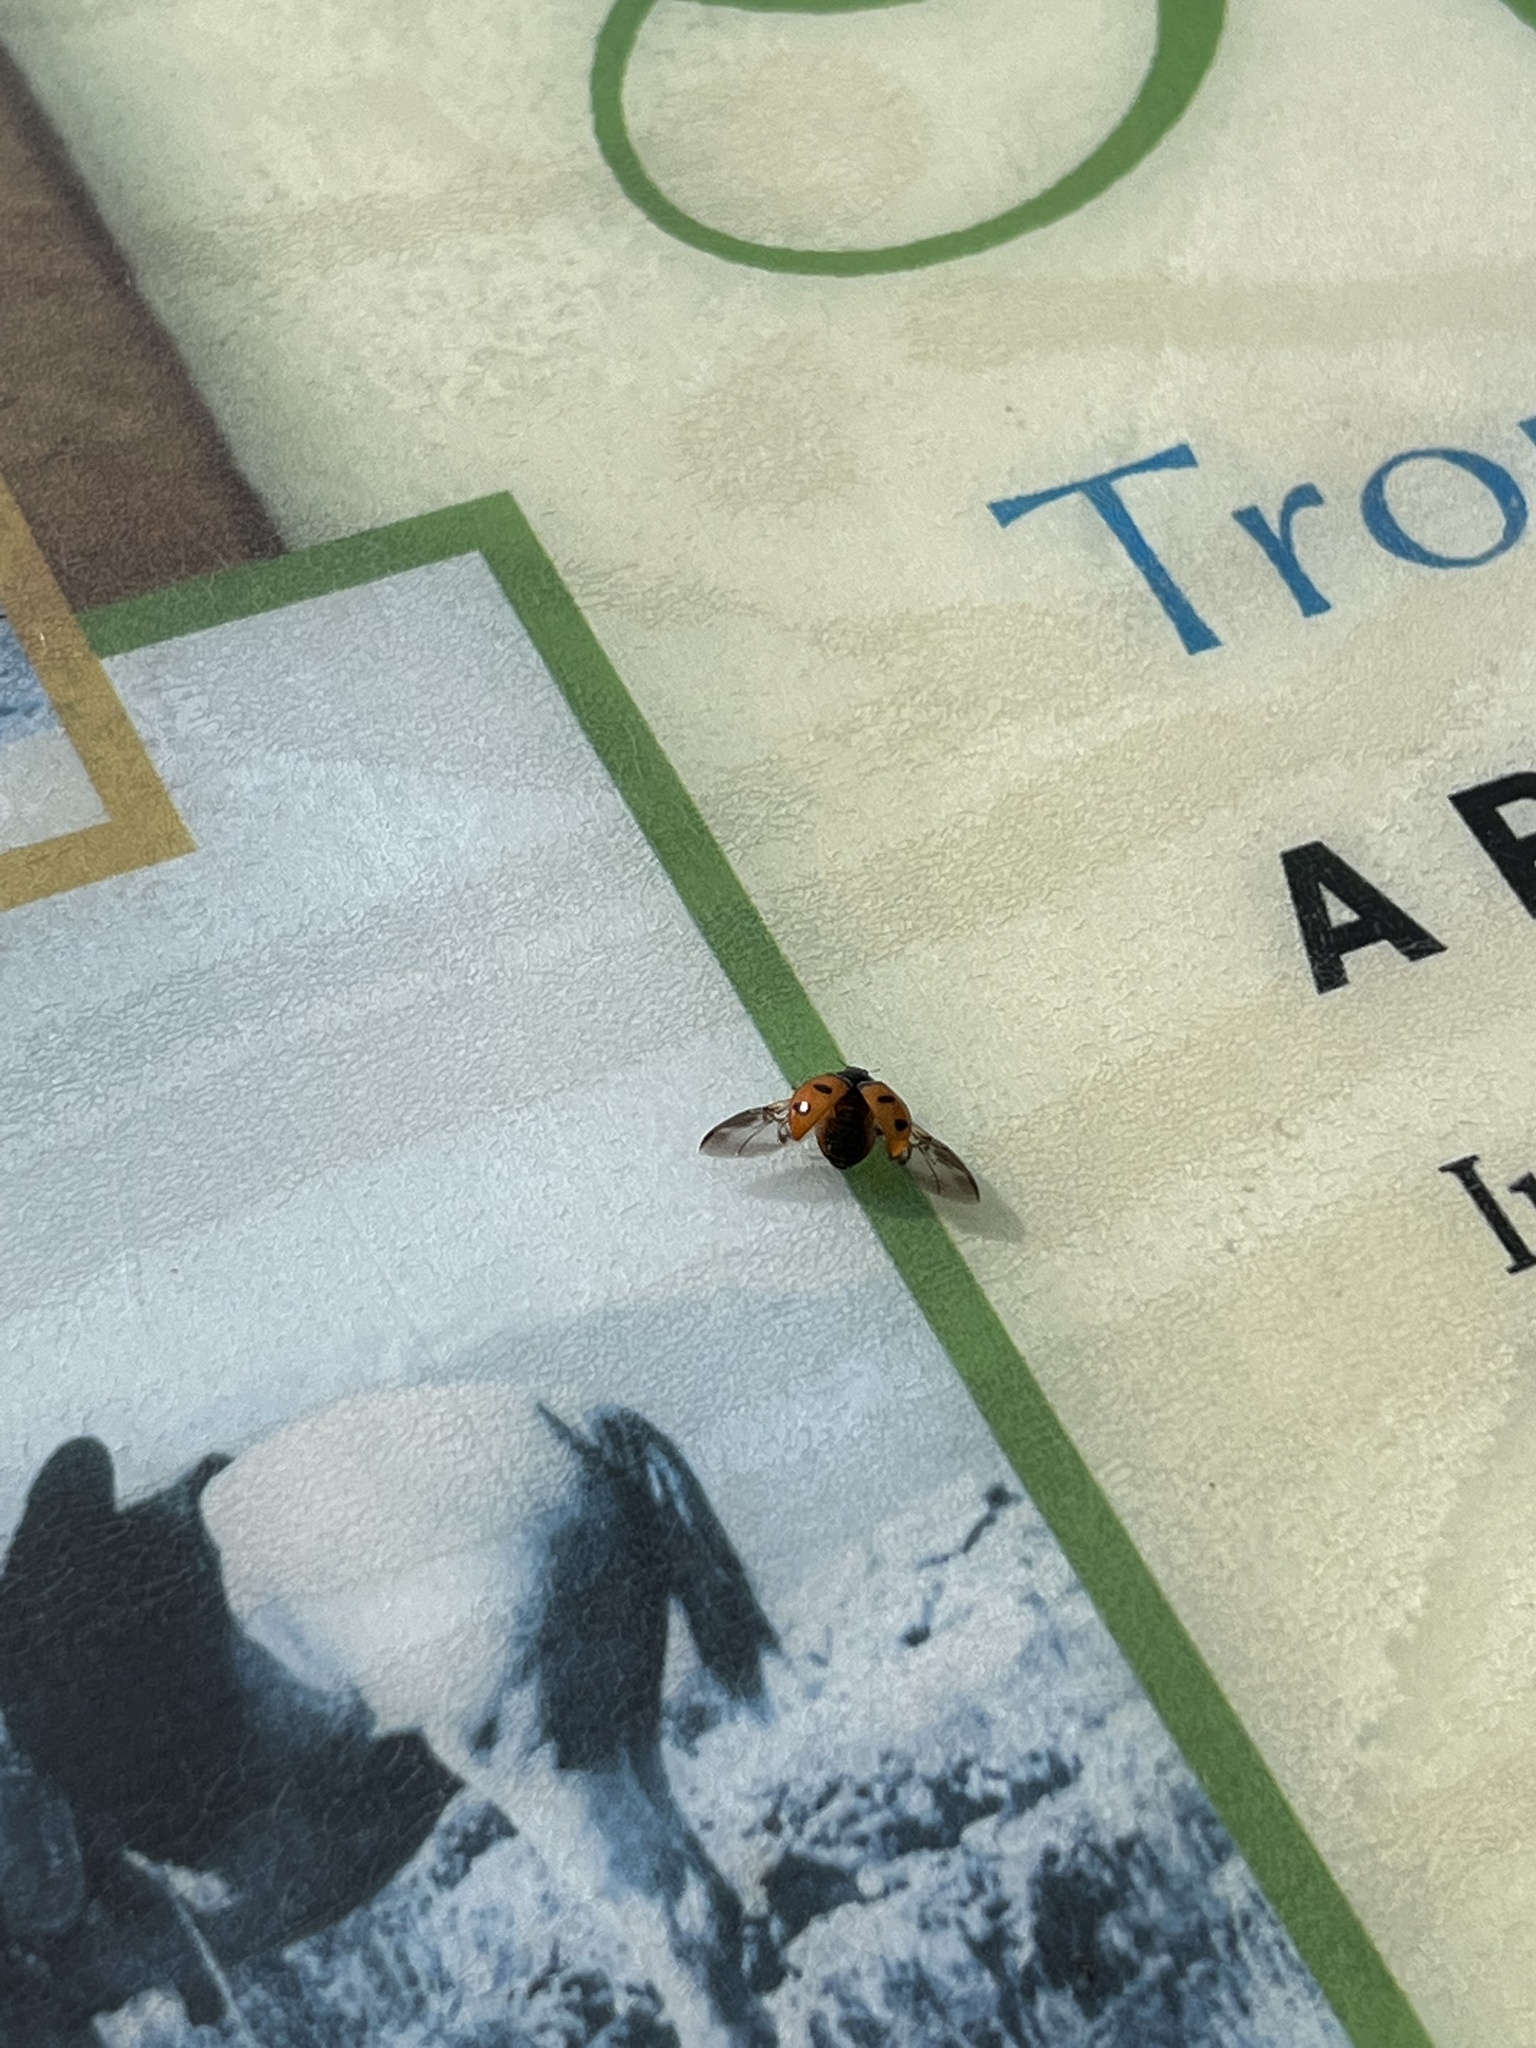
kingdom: Animalia
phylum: Arthropoda
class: Insecta
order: Coleoptera
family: Coccinellidae
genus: Coccinella
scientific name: Coccinella transversoguttata
